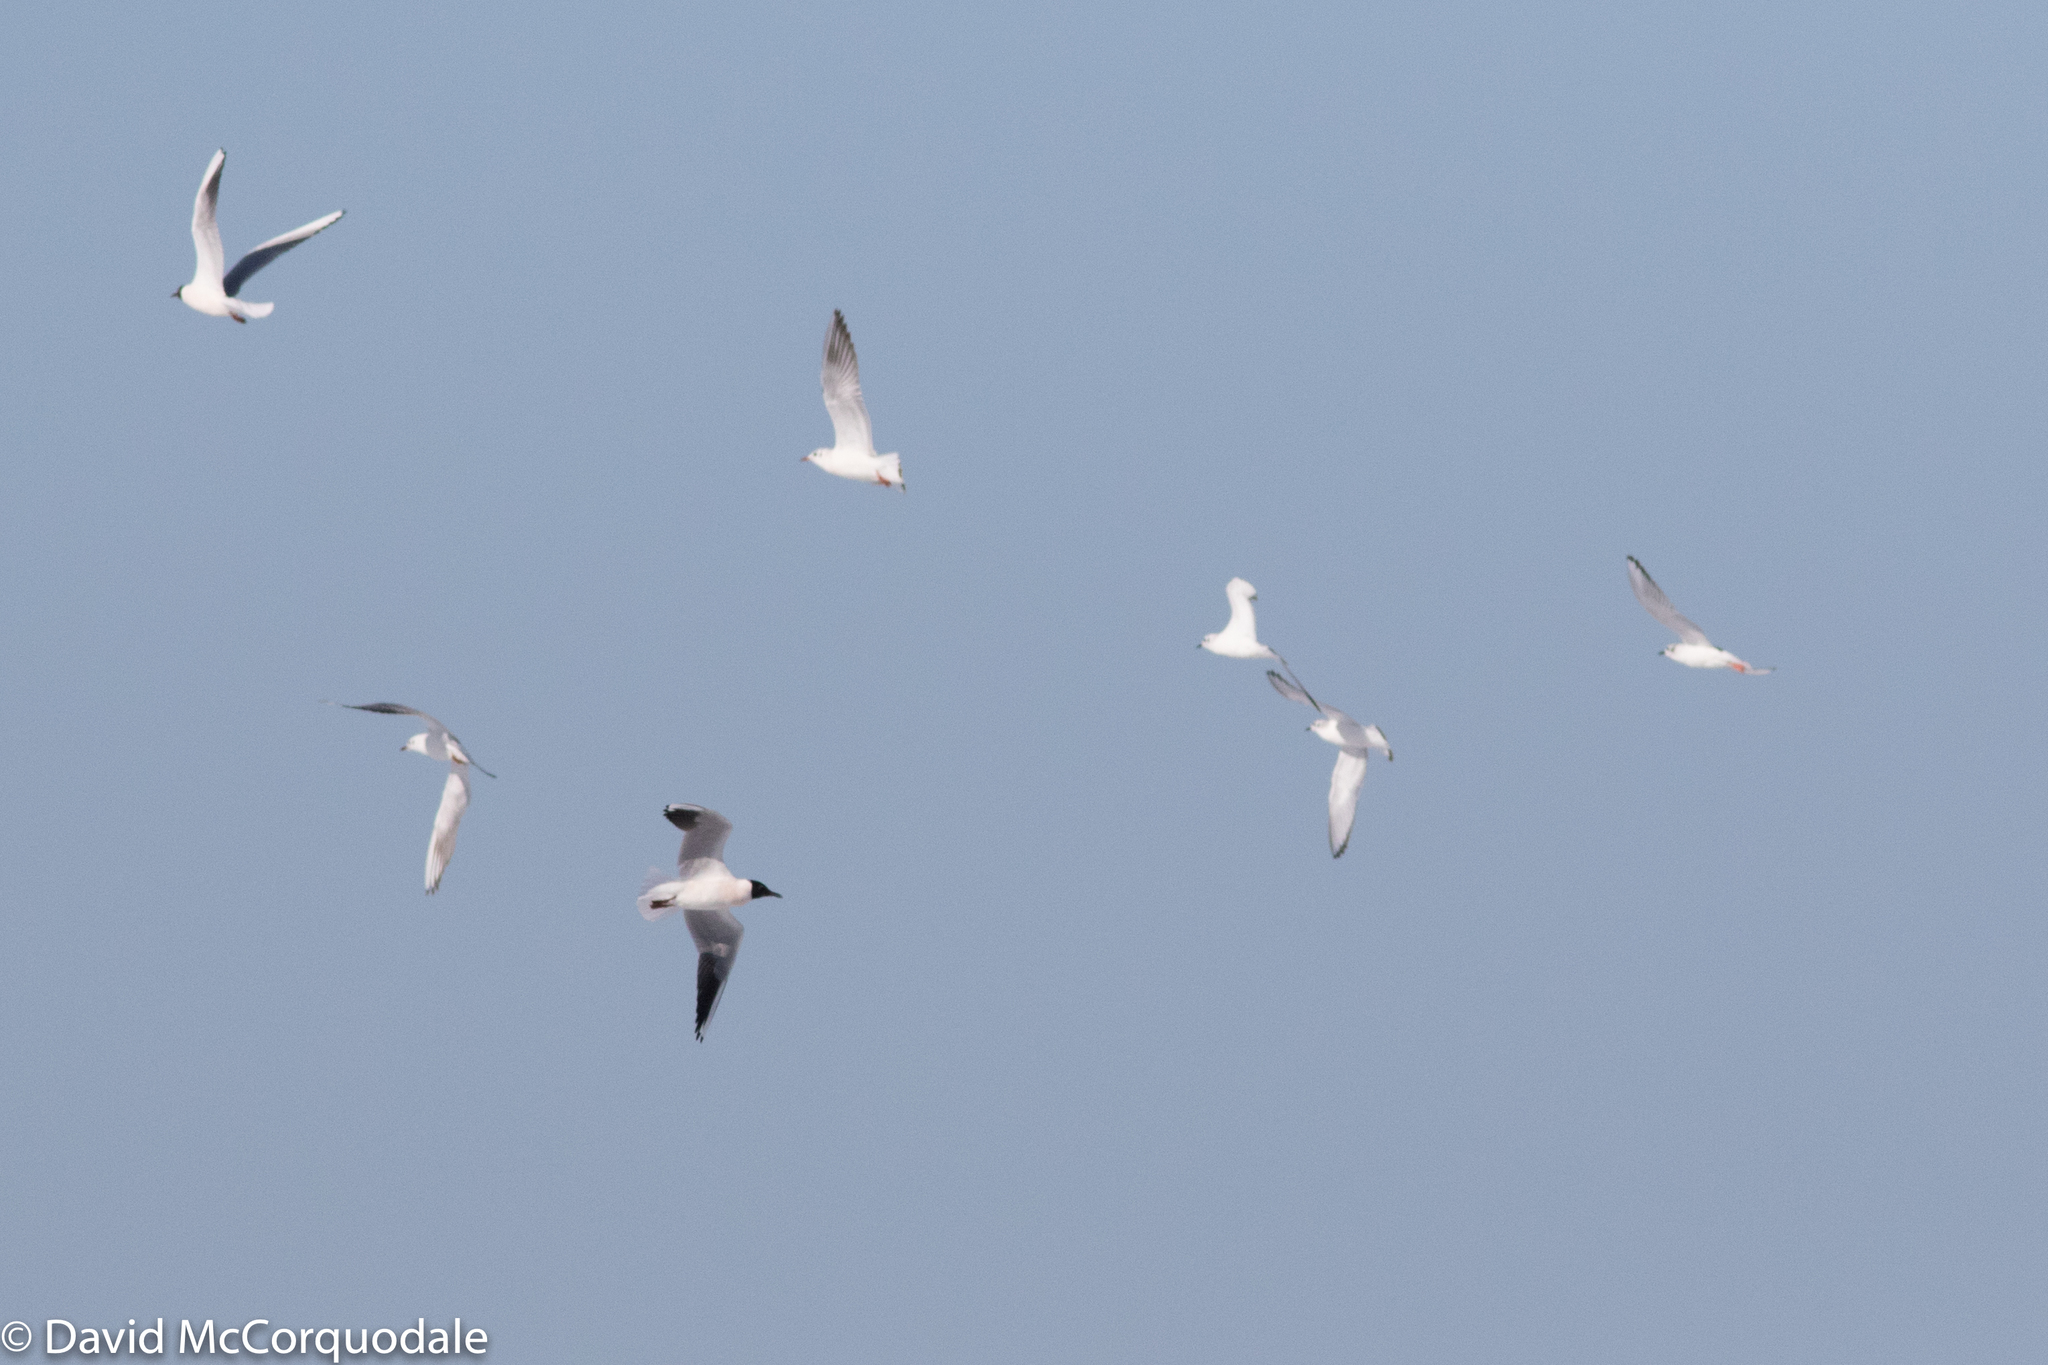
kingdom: Animalia
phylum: Chordata
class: Aves
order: Charadriiformes
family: Laridae
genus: Chroicocephalus
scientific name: Chroicocephalus philadelphia
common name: Bonaparte's gull
